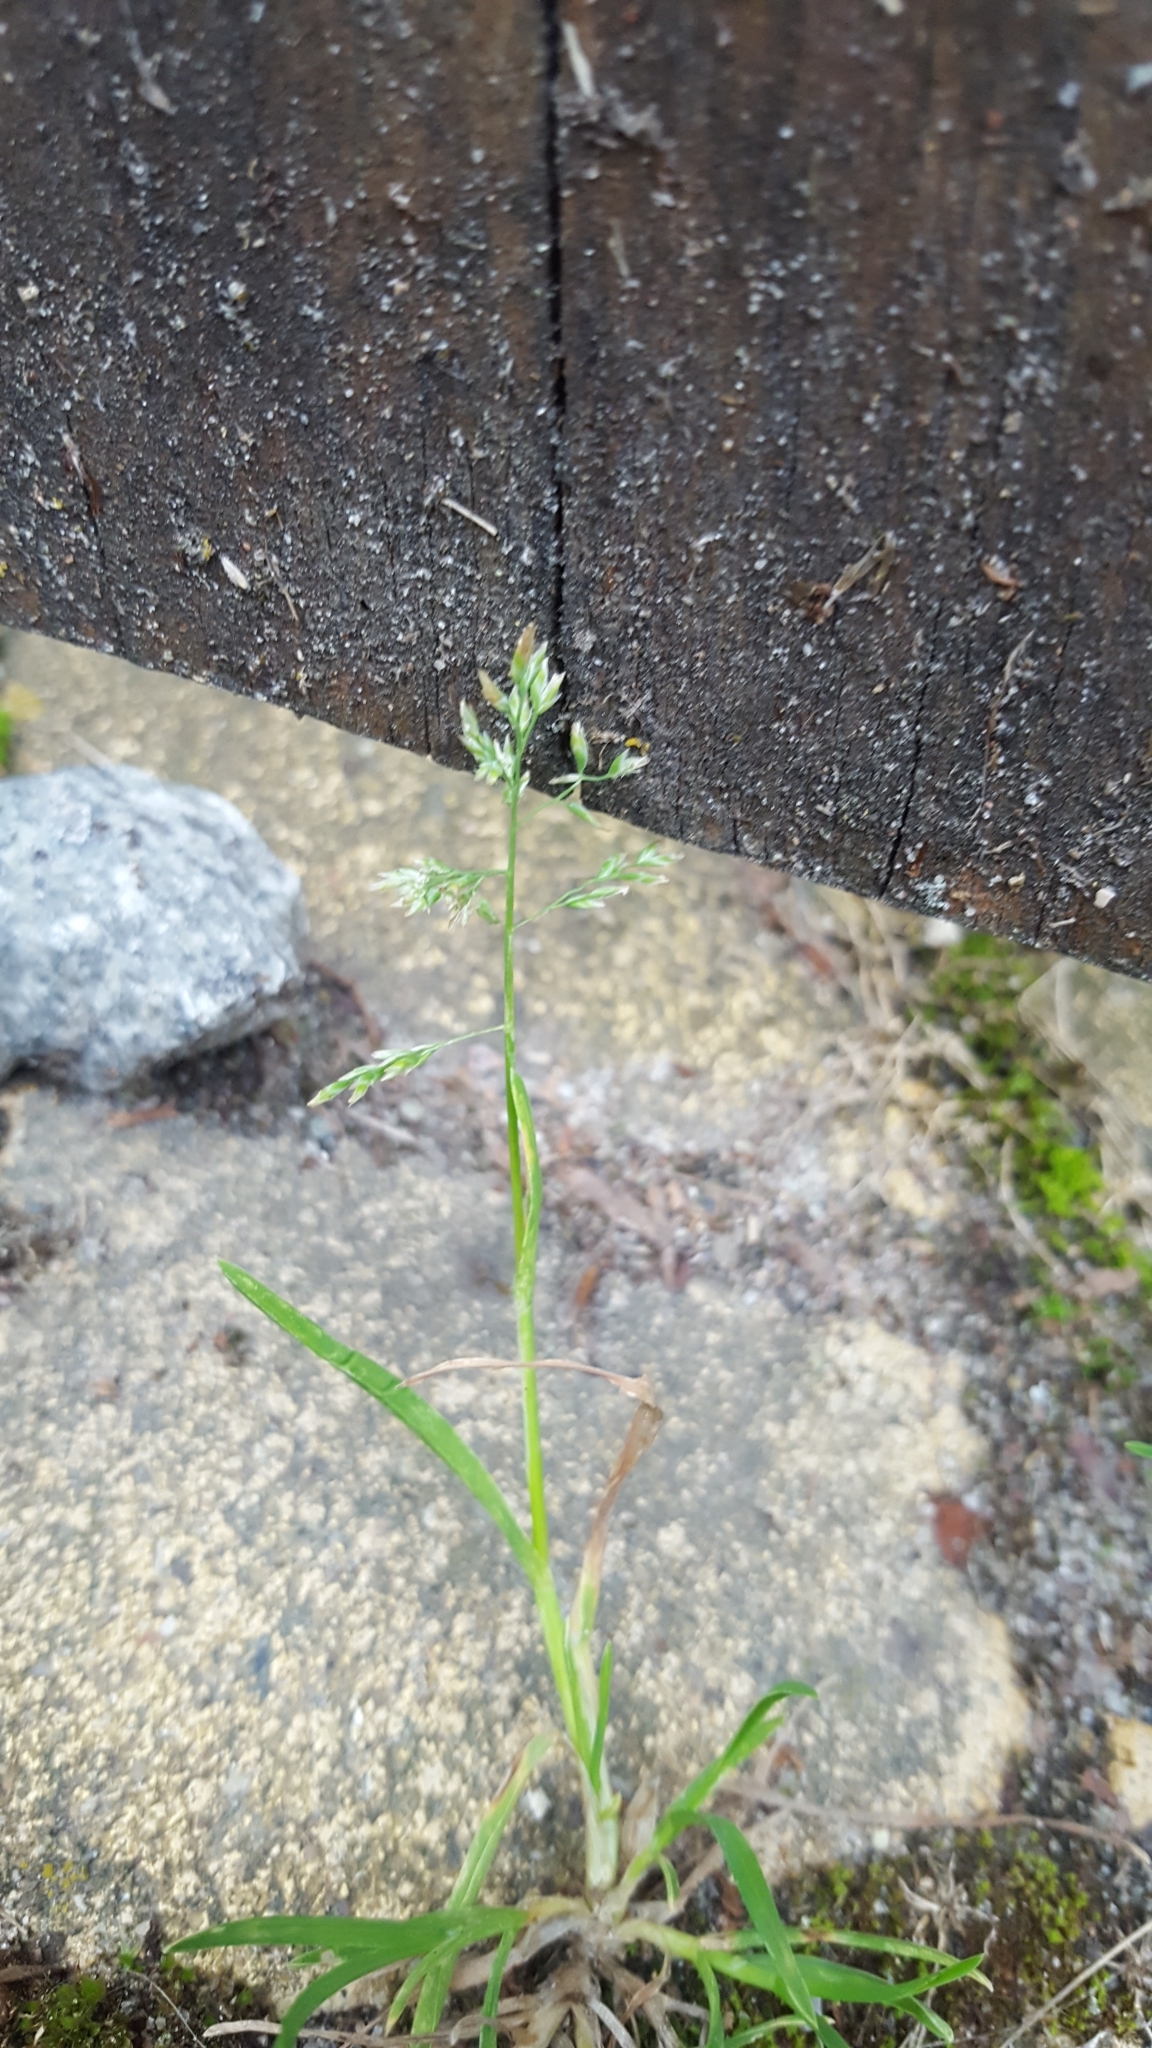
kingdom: Plantae
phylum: Tracheophyta
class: Liliopsida
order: Poales
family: Poaceae
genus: Poa
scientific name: Poa annua
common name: Annual bluegrass
